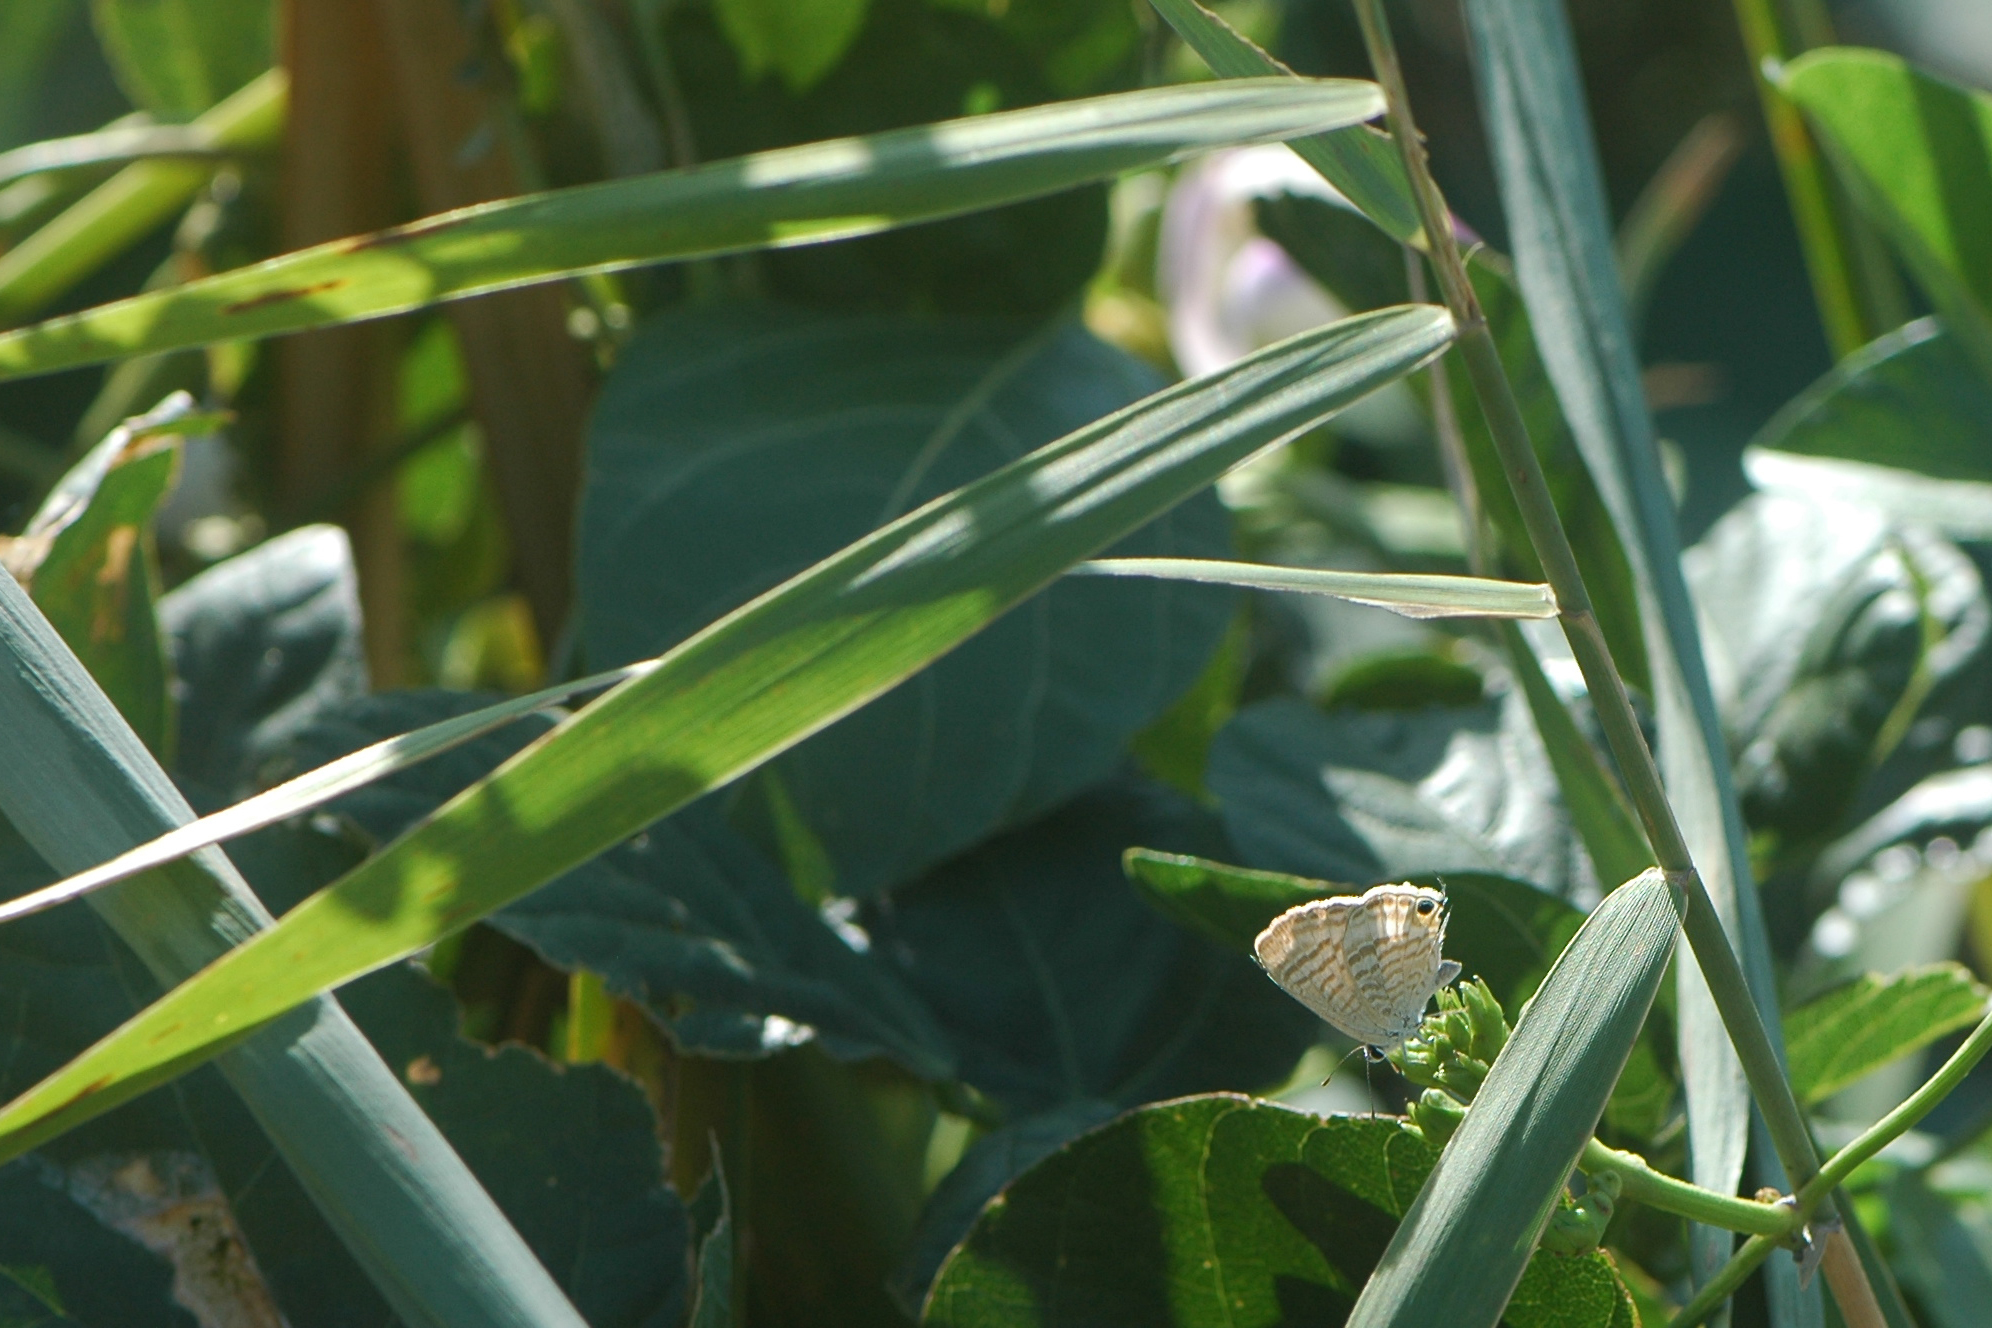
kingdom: Animalia
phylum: Arthropoda
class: Insecta
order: Lepidoptera
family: Lycaenidae
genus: Lampides
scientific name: Lampides boeticus
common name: Long-tailed blue
